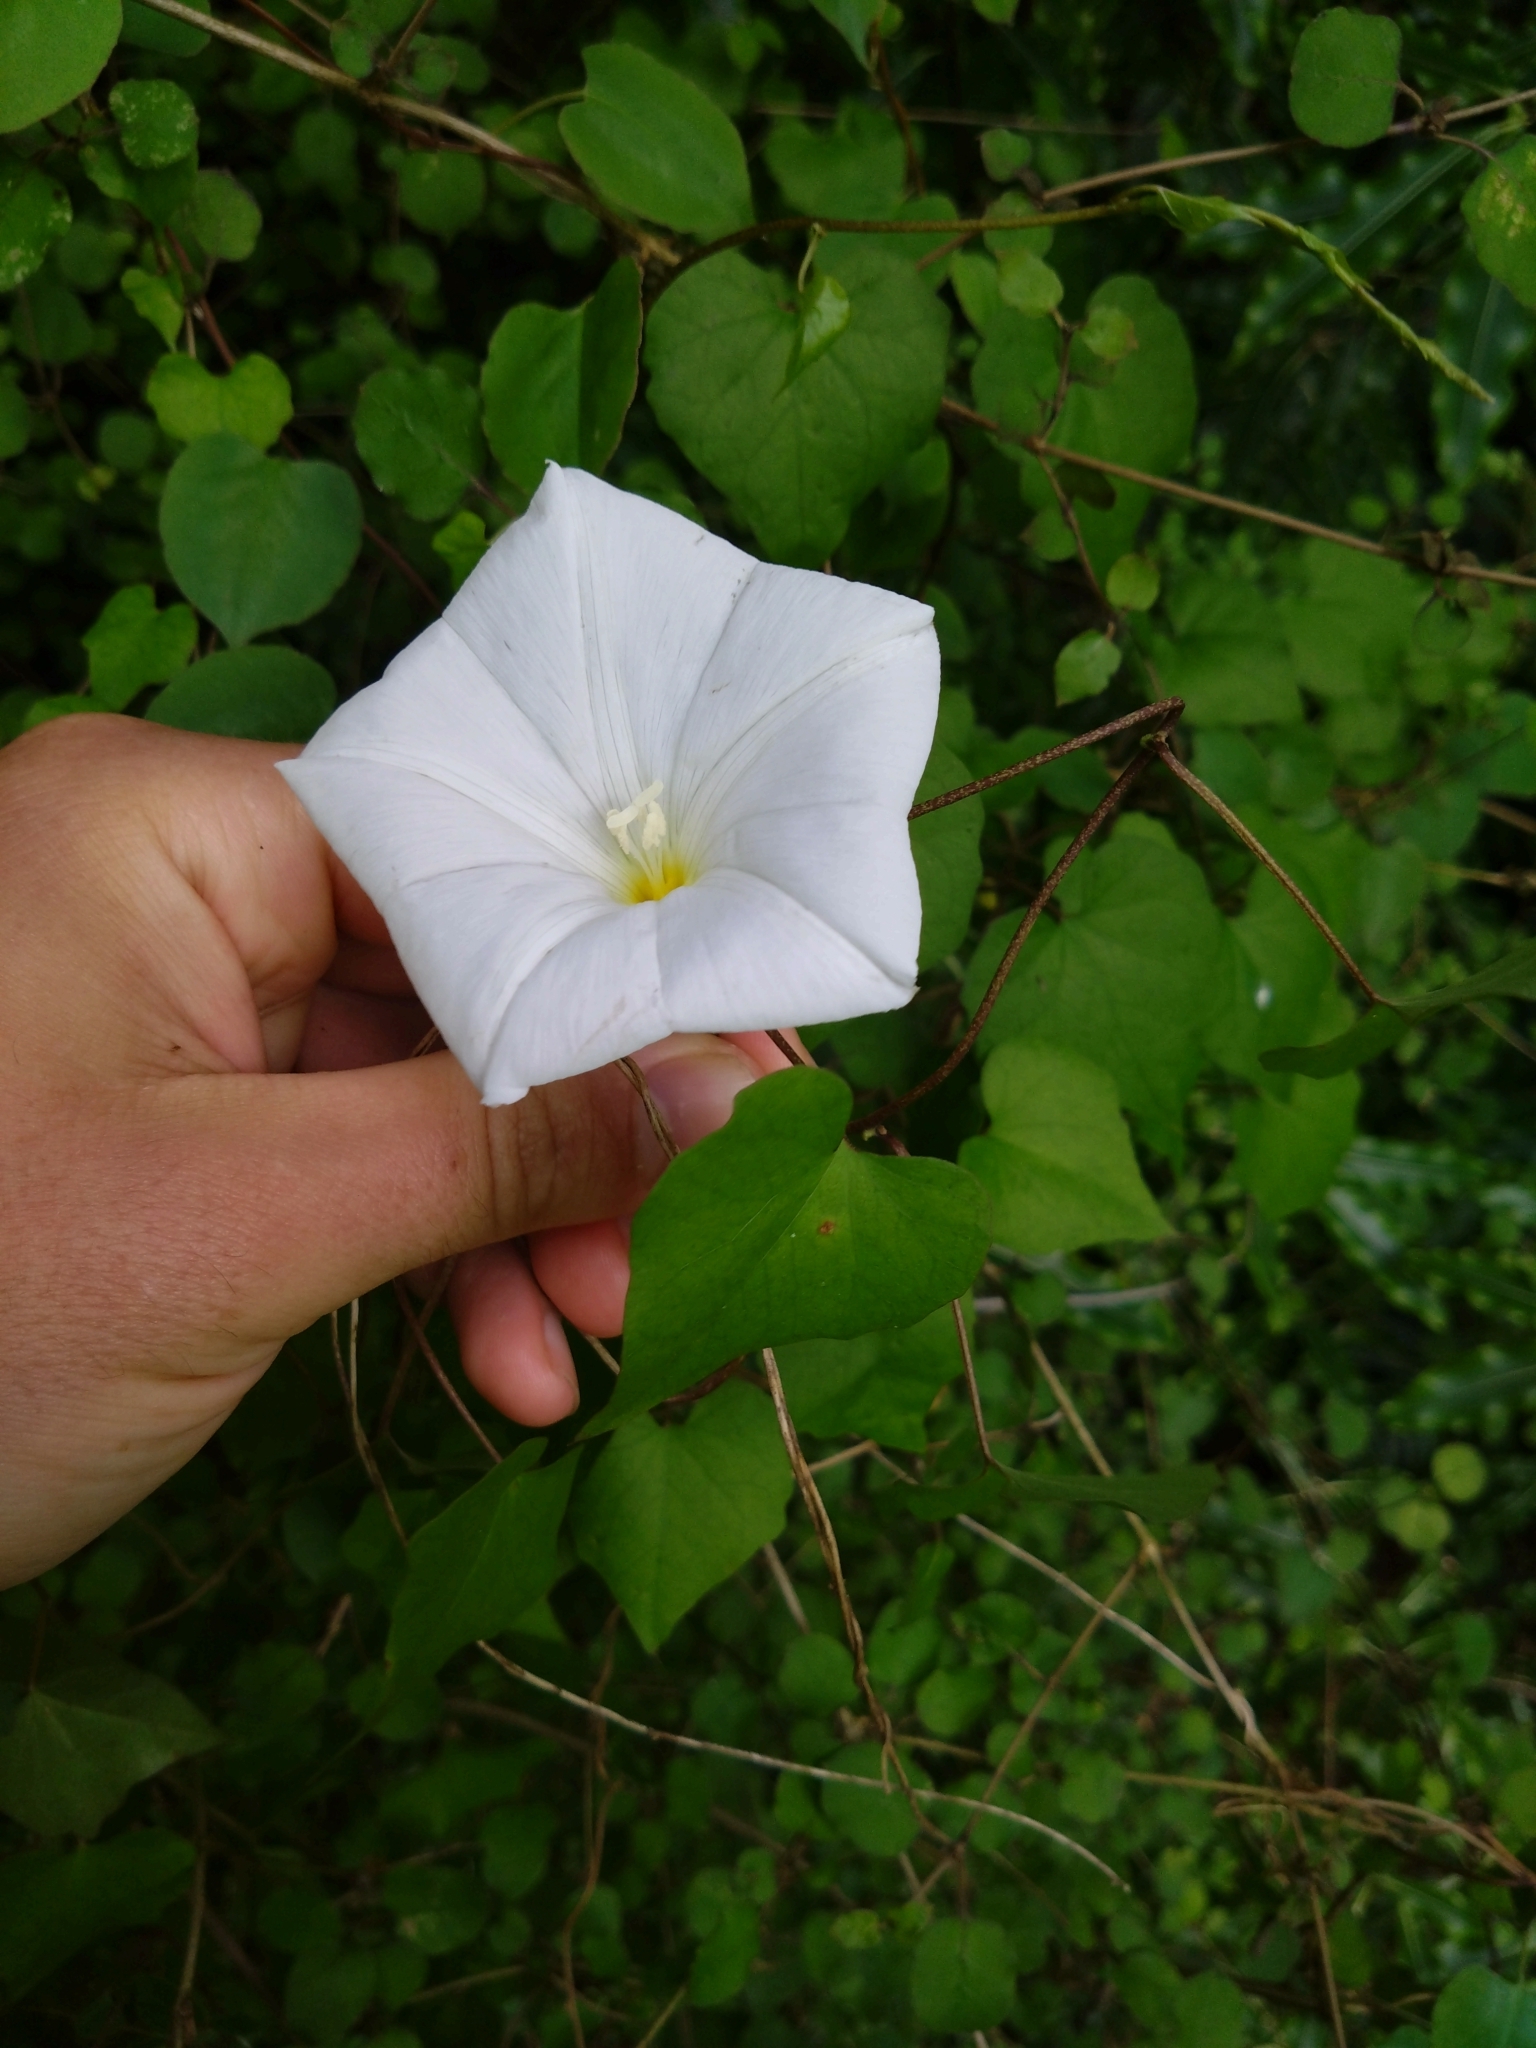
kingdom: Plantae
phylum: Tracheophyta
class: Magnoliopsida
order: Solanales
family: Convolvulaceae
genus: Calystegia
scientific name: Calystegia tuguriorum
